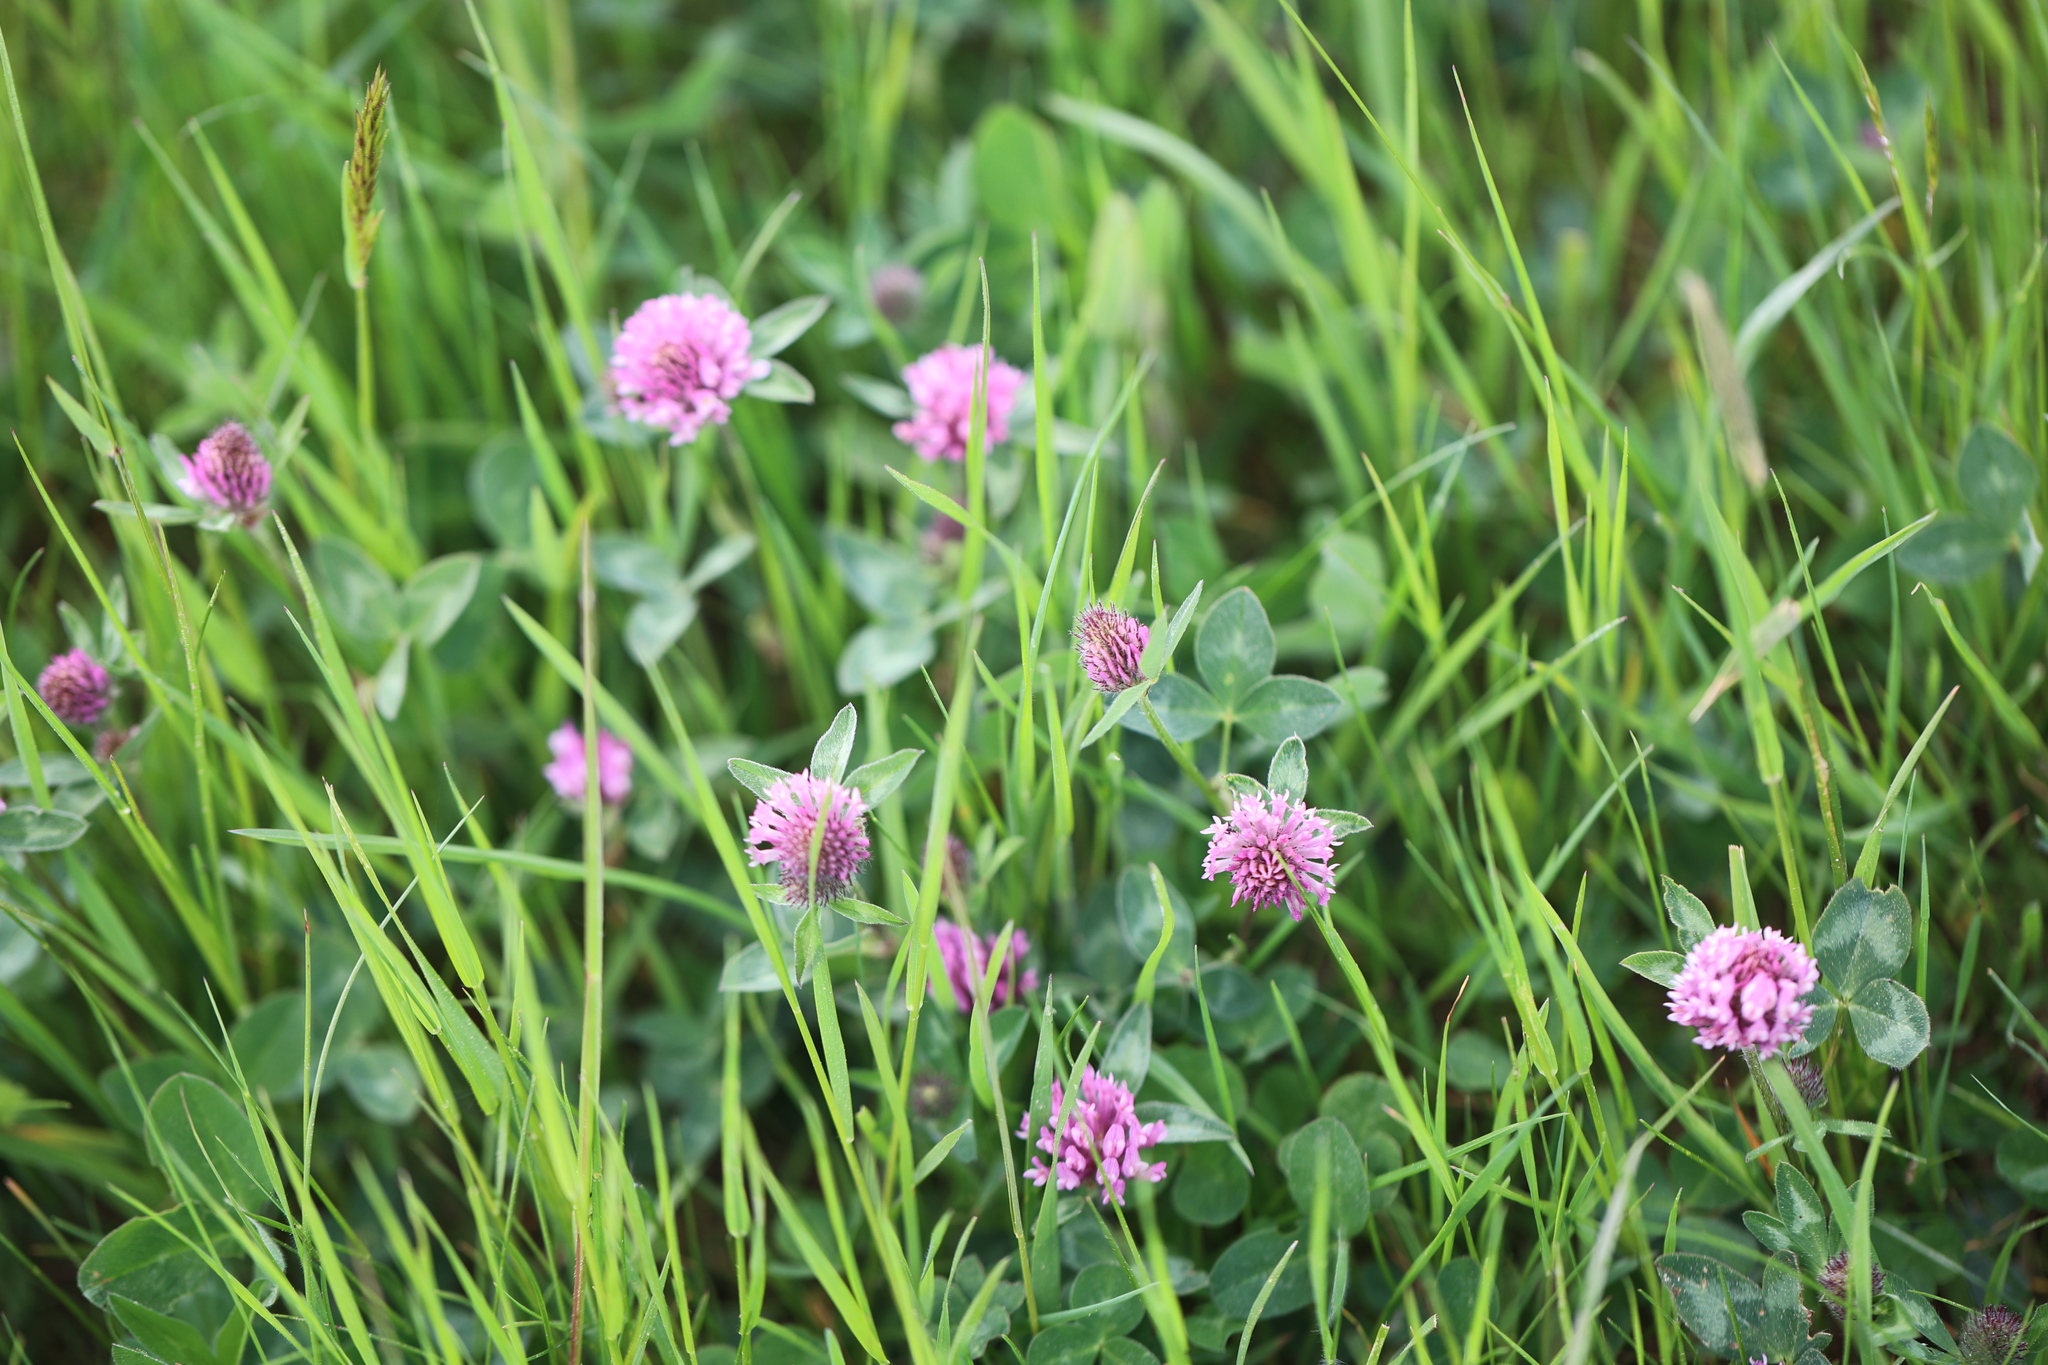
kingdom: Plantae
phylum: Tracheophyta
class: Magnoliopsida
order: Fabales
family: Fabaceae
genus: Trifolium
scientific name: Trifolium pratense
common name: Red clover
